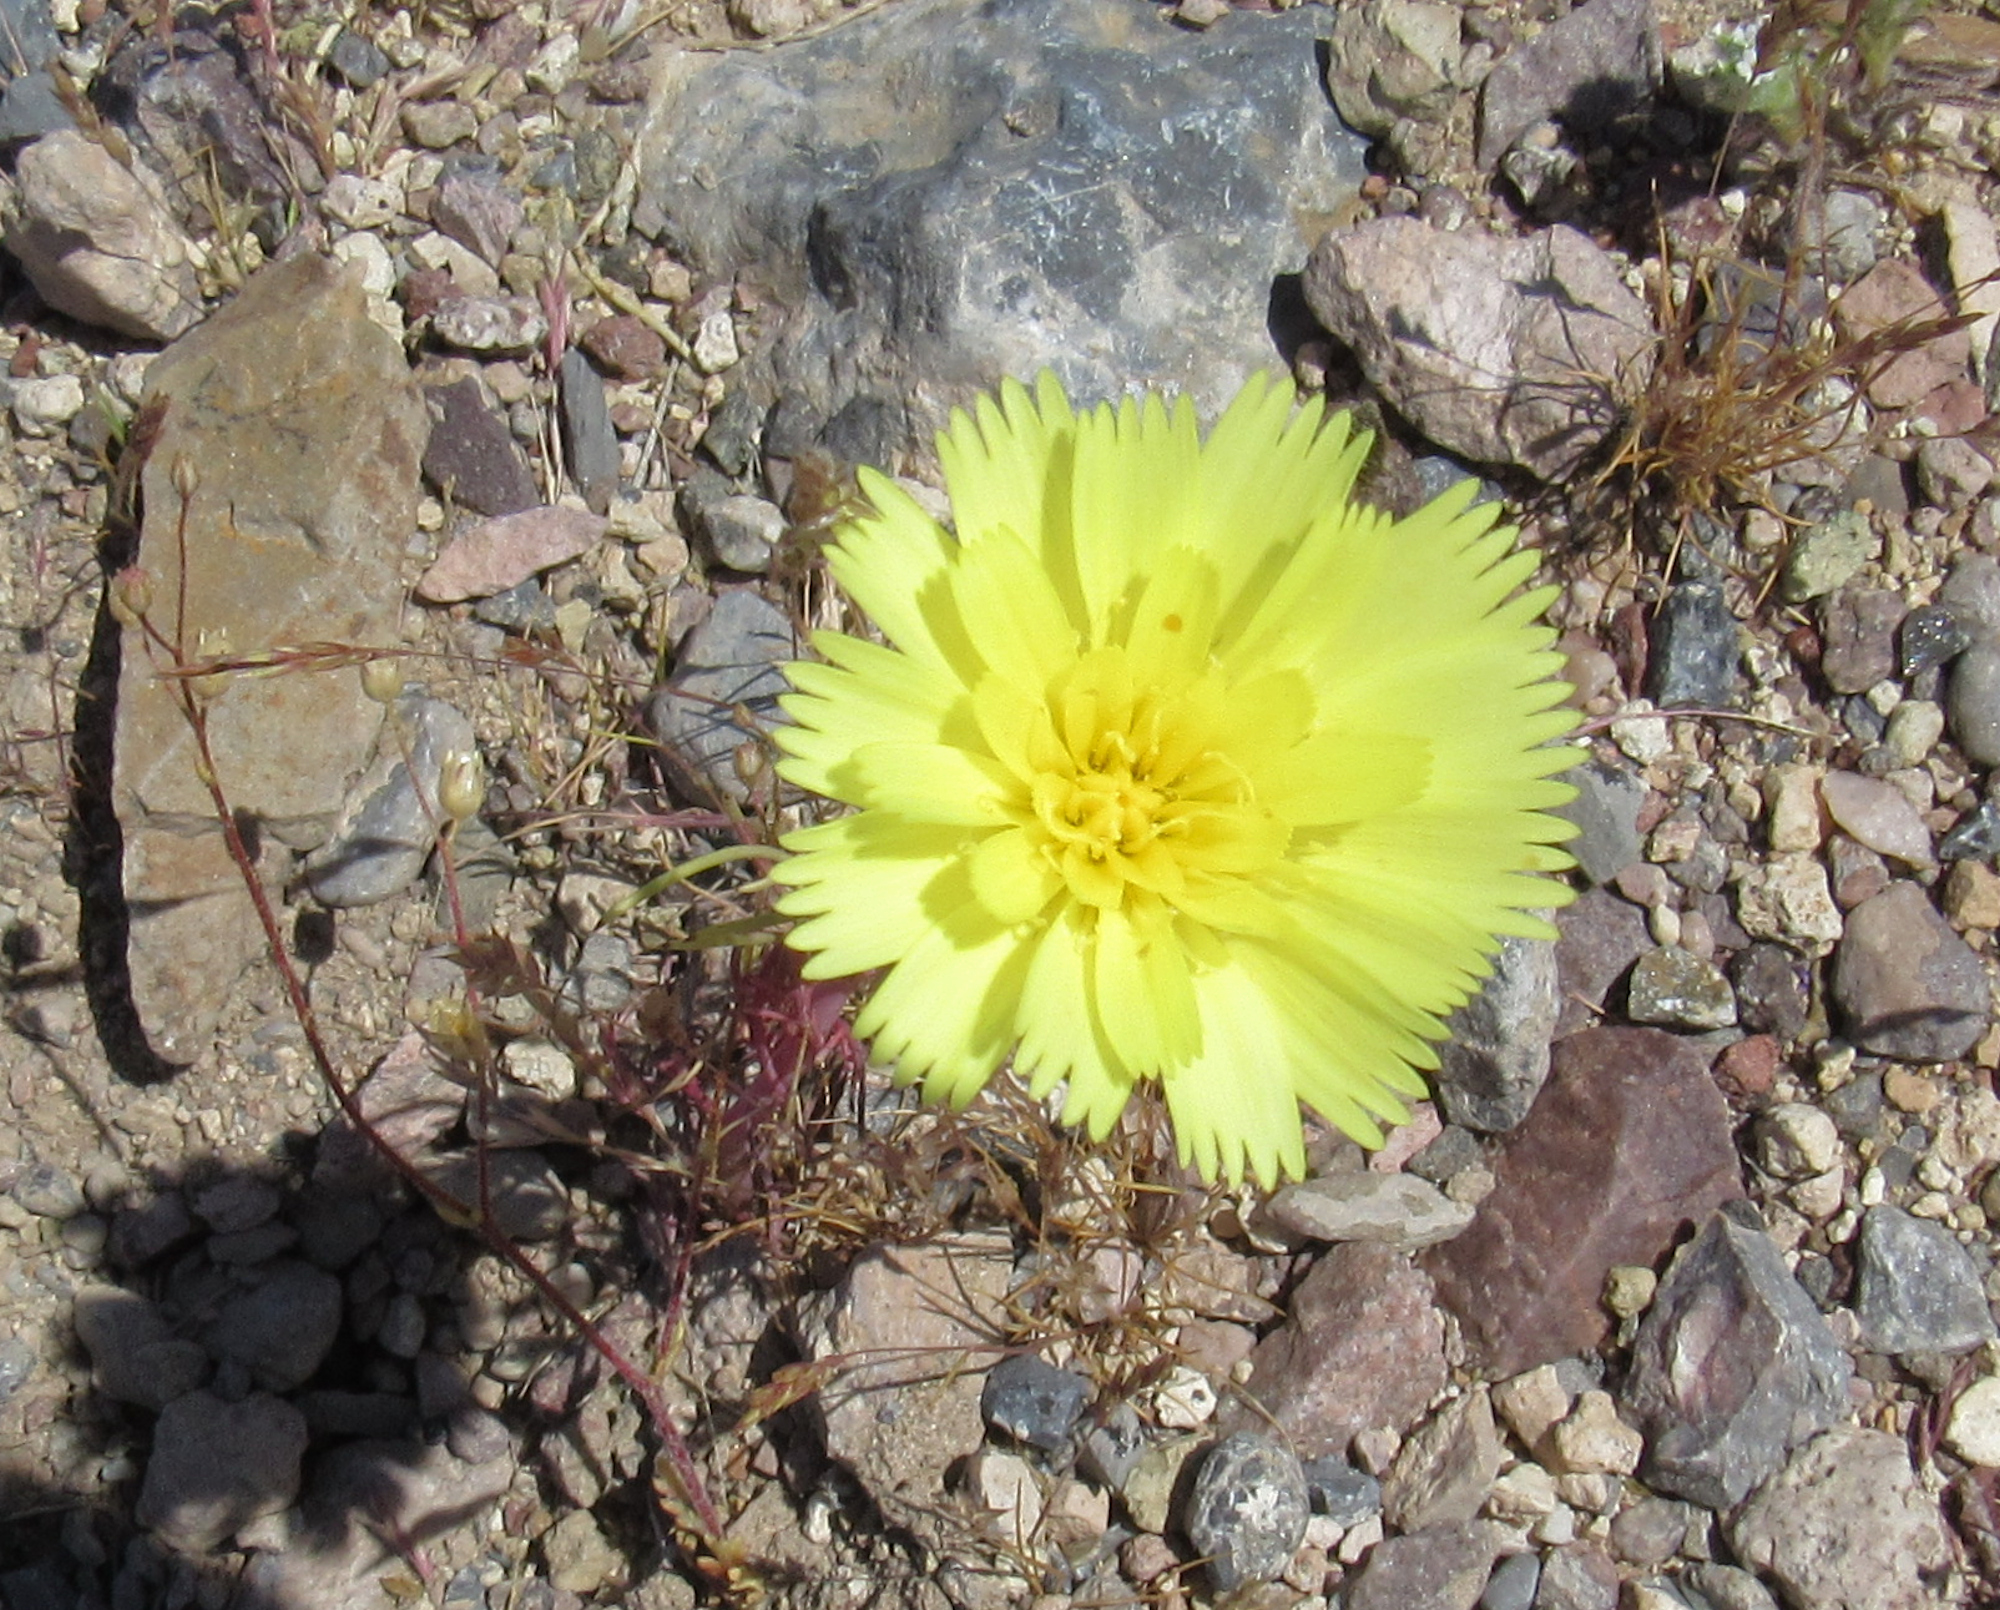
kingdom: Plantae
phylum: Tracheophyta
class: Magnoliopsida
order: Asterales
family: Asteraceae
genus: Malacothrix
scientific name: Malacothrix glabrata
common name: Smooth desert-dandelion
